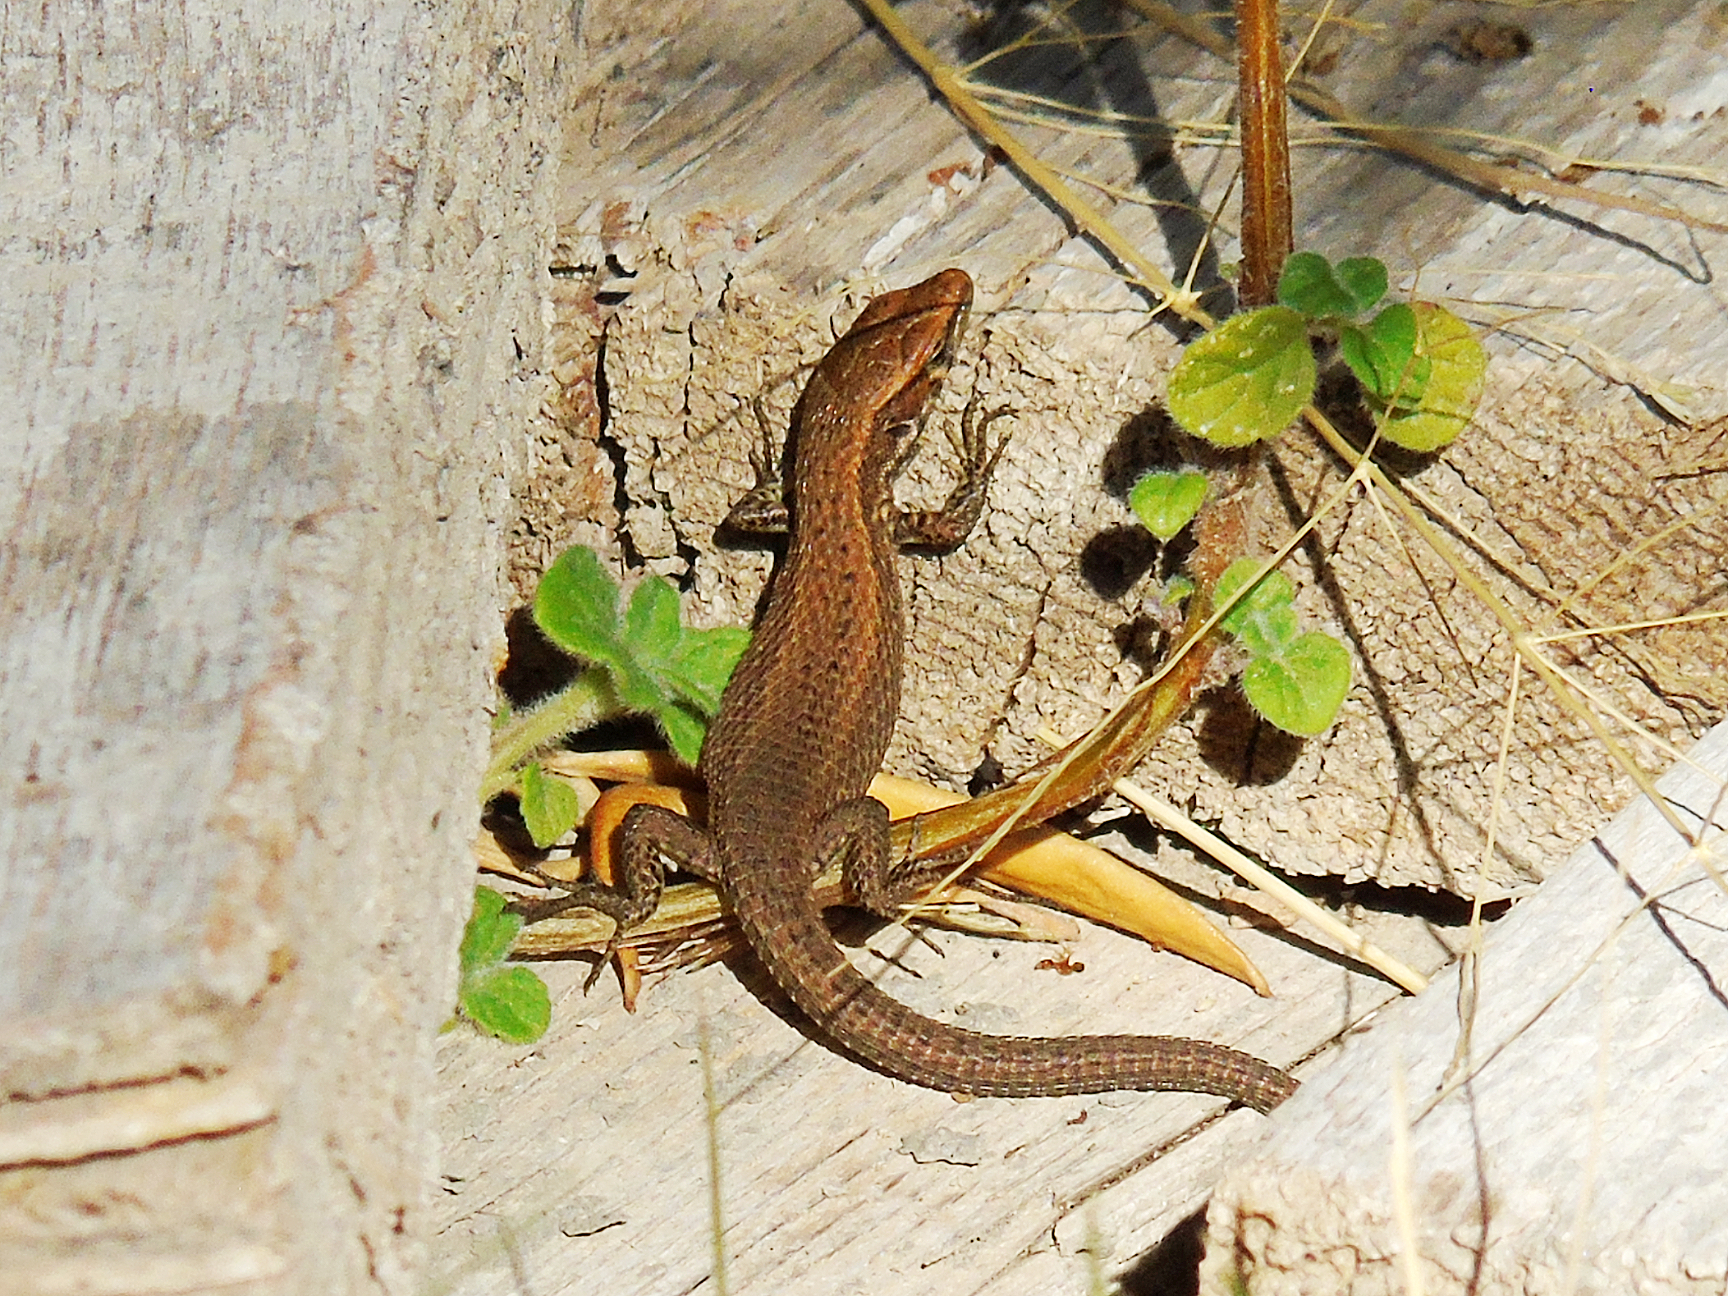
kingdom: Animalia
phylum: Chordata
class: Squamata
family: Lacertidae
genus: Algyroides
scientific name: Algyroides moreoticus
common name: Greek algyroides
